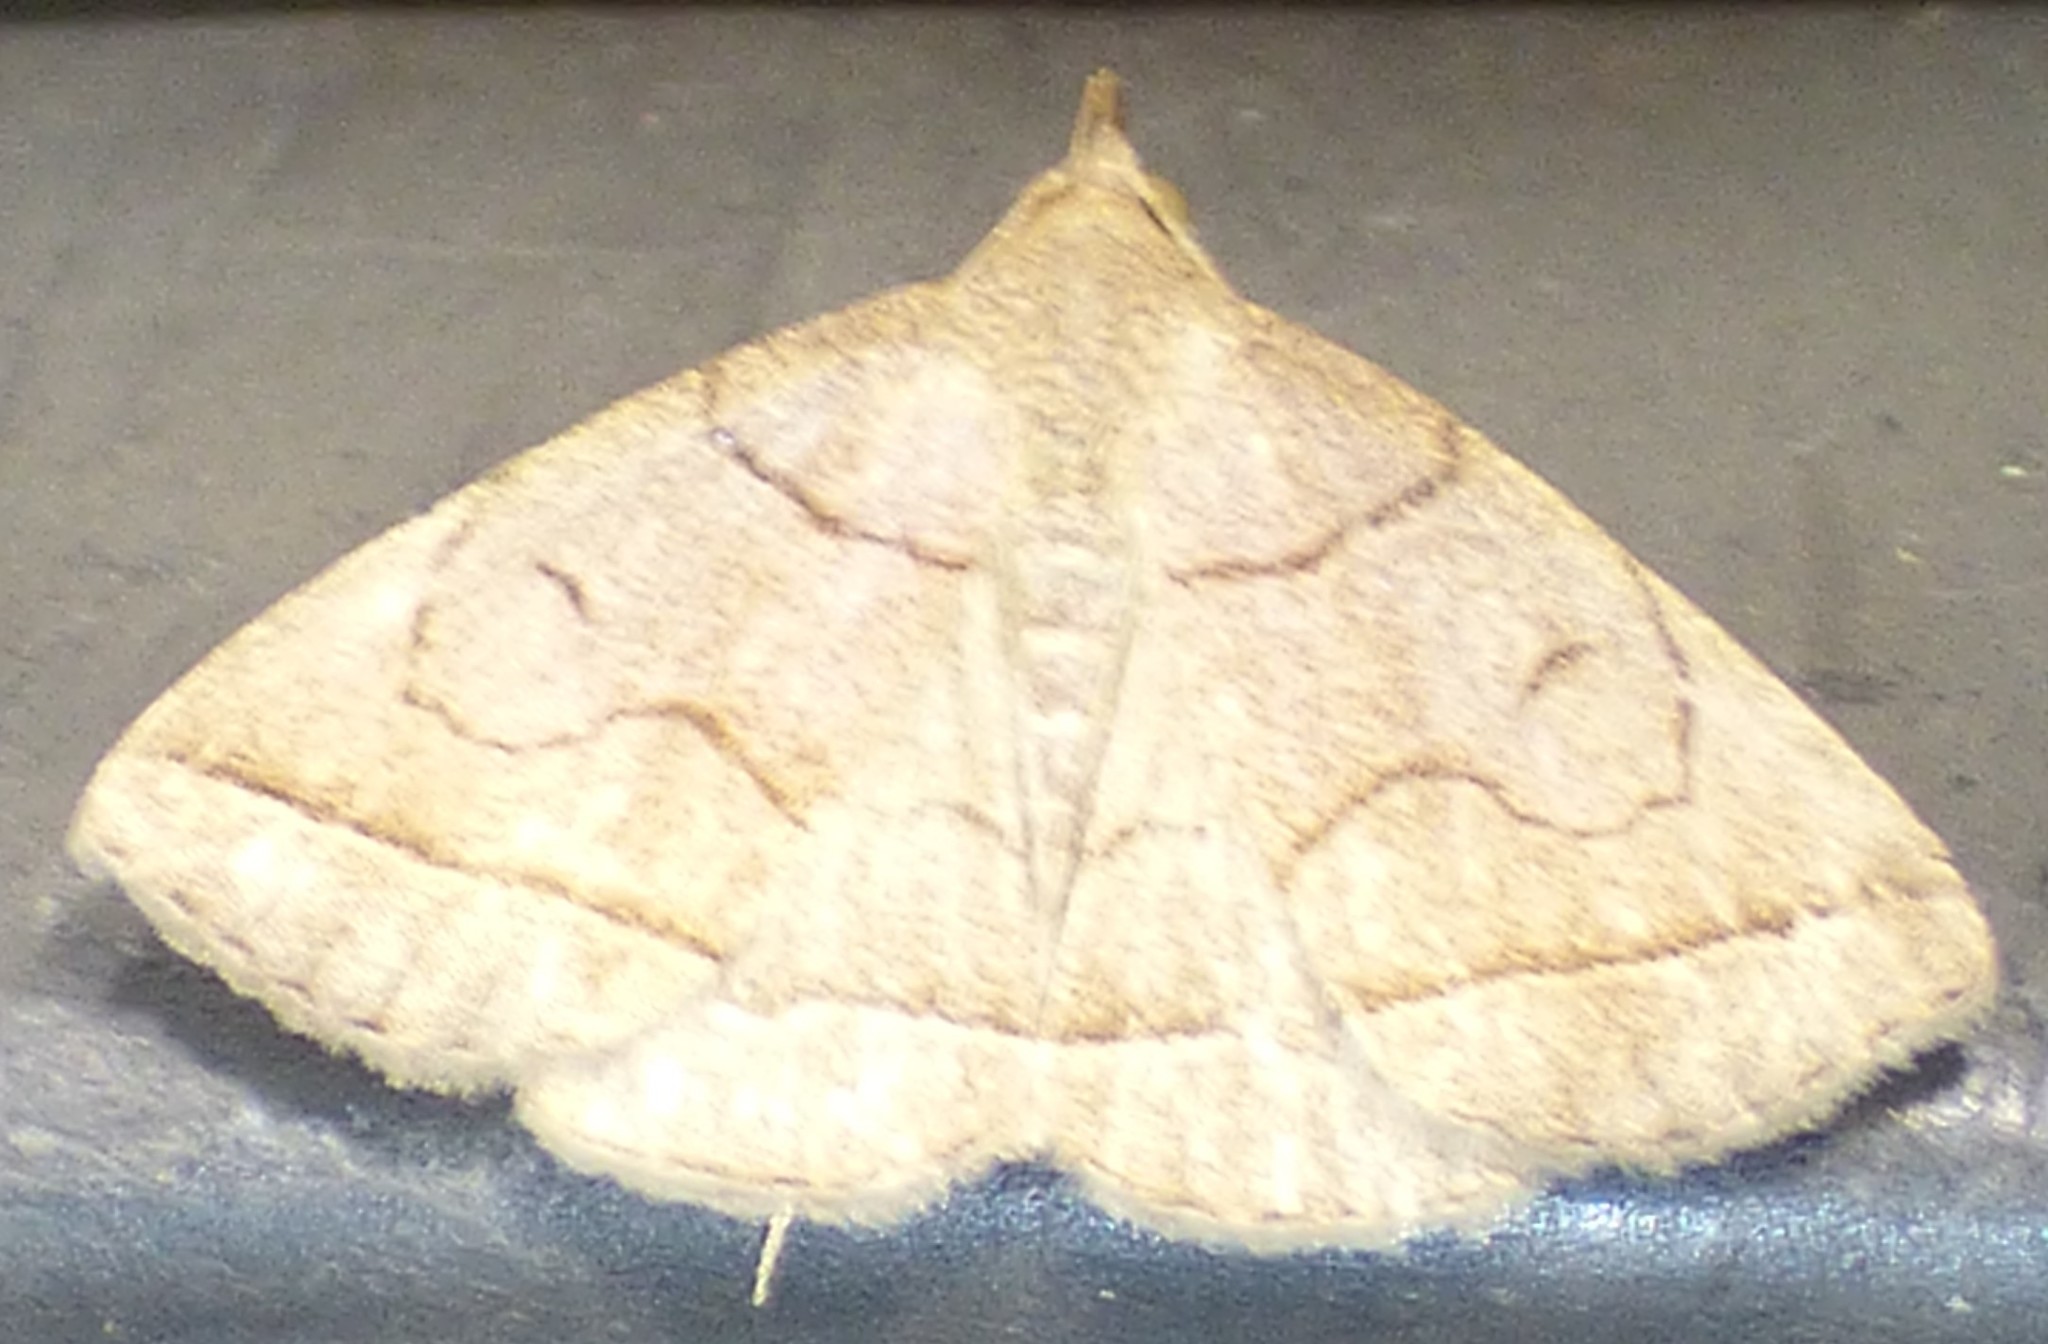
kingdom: Animalia
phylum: Arthropoda
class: Insecta
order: Lepidoptera
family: Erebidae
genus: Zanclognatha
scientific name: Zanclognatha cruralis
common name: Early fan-foot
